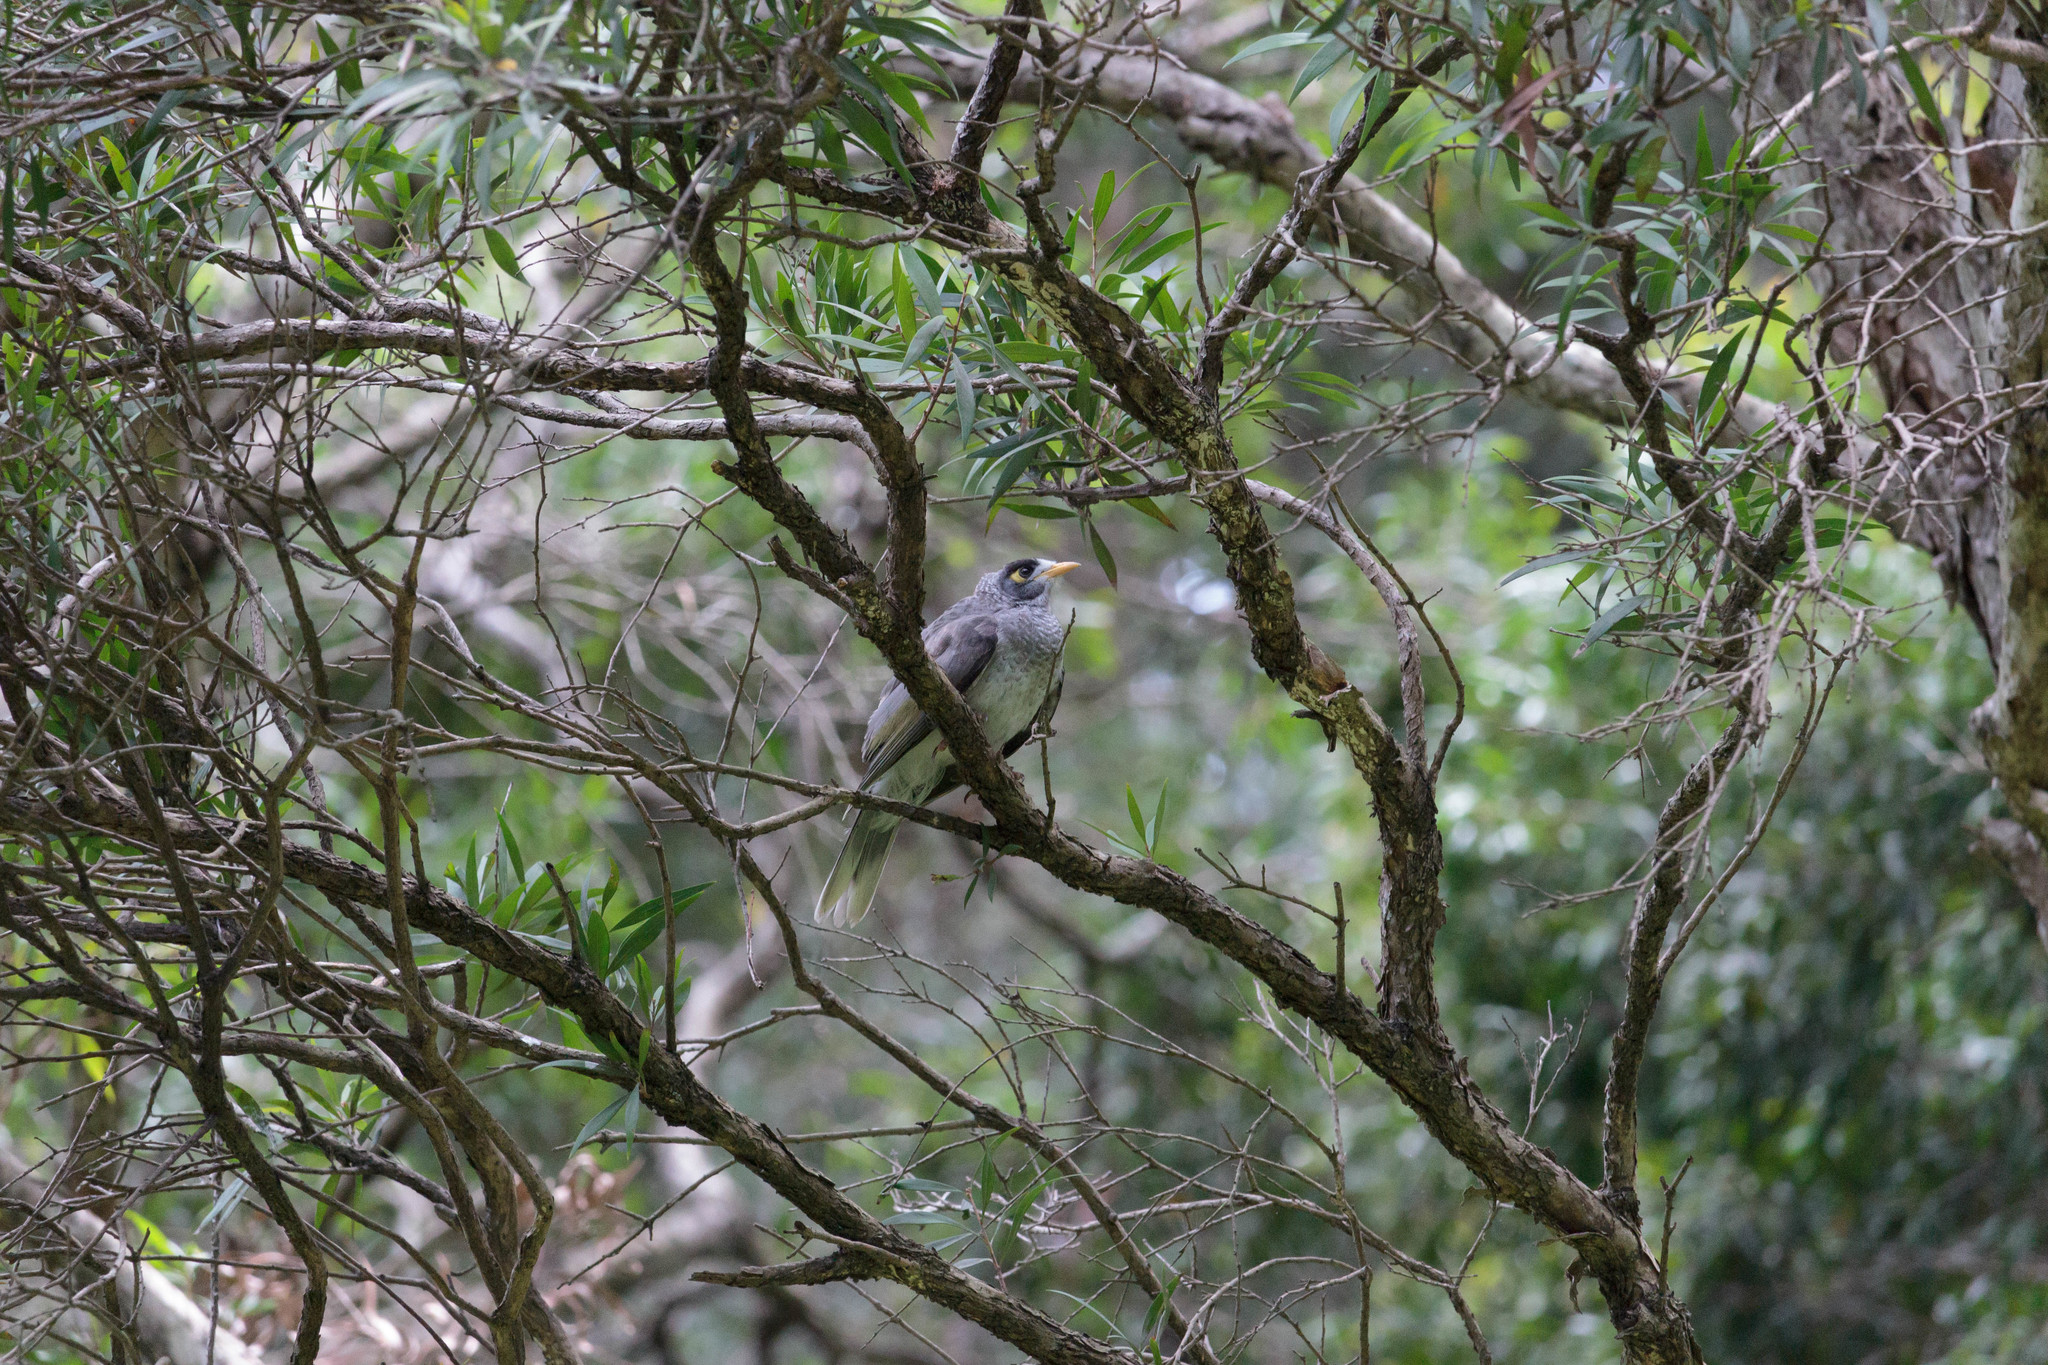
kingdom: Animalia
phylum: Chordata
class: Aves
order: Passeriformes
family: Meliphagidae
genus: Manorina
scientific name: Manorina melanocephala
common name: Noisy miner
